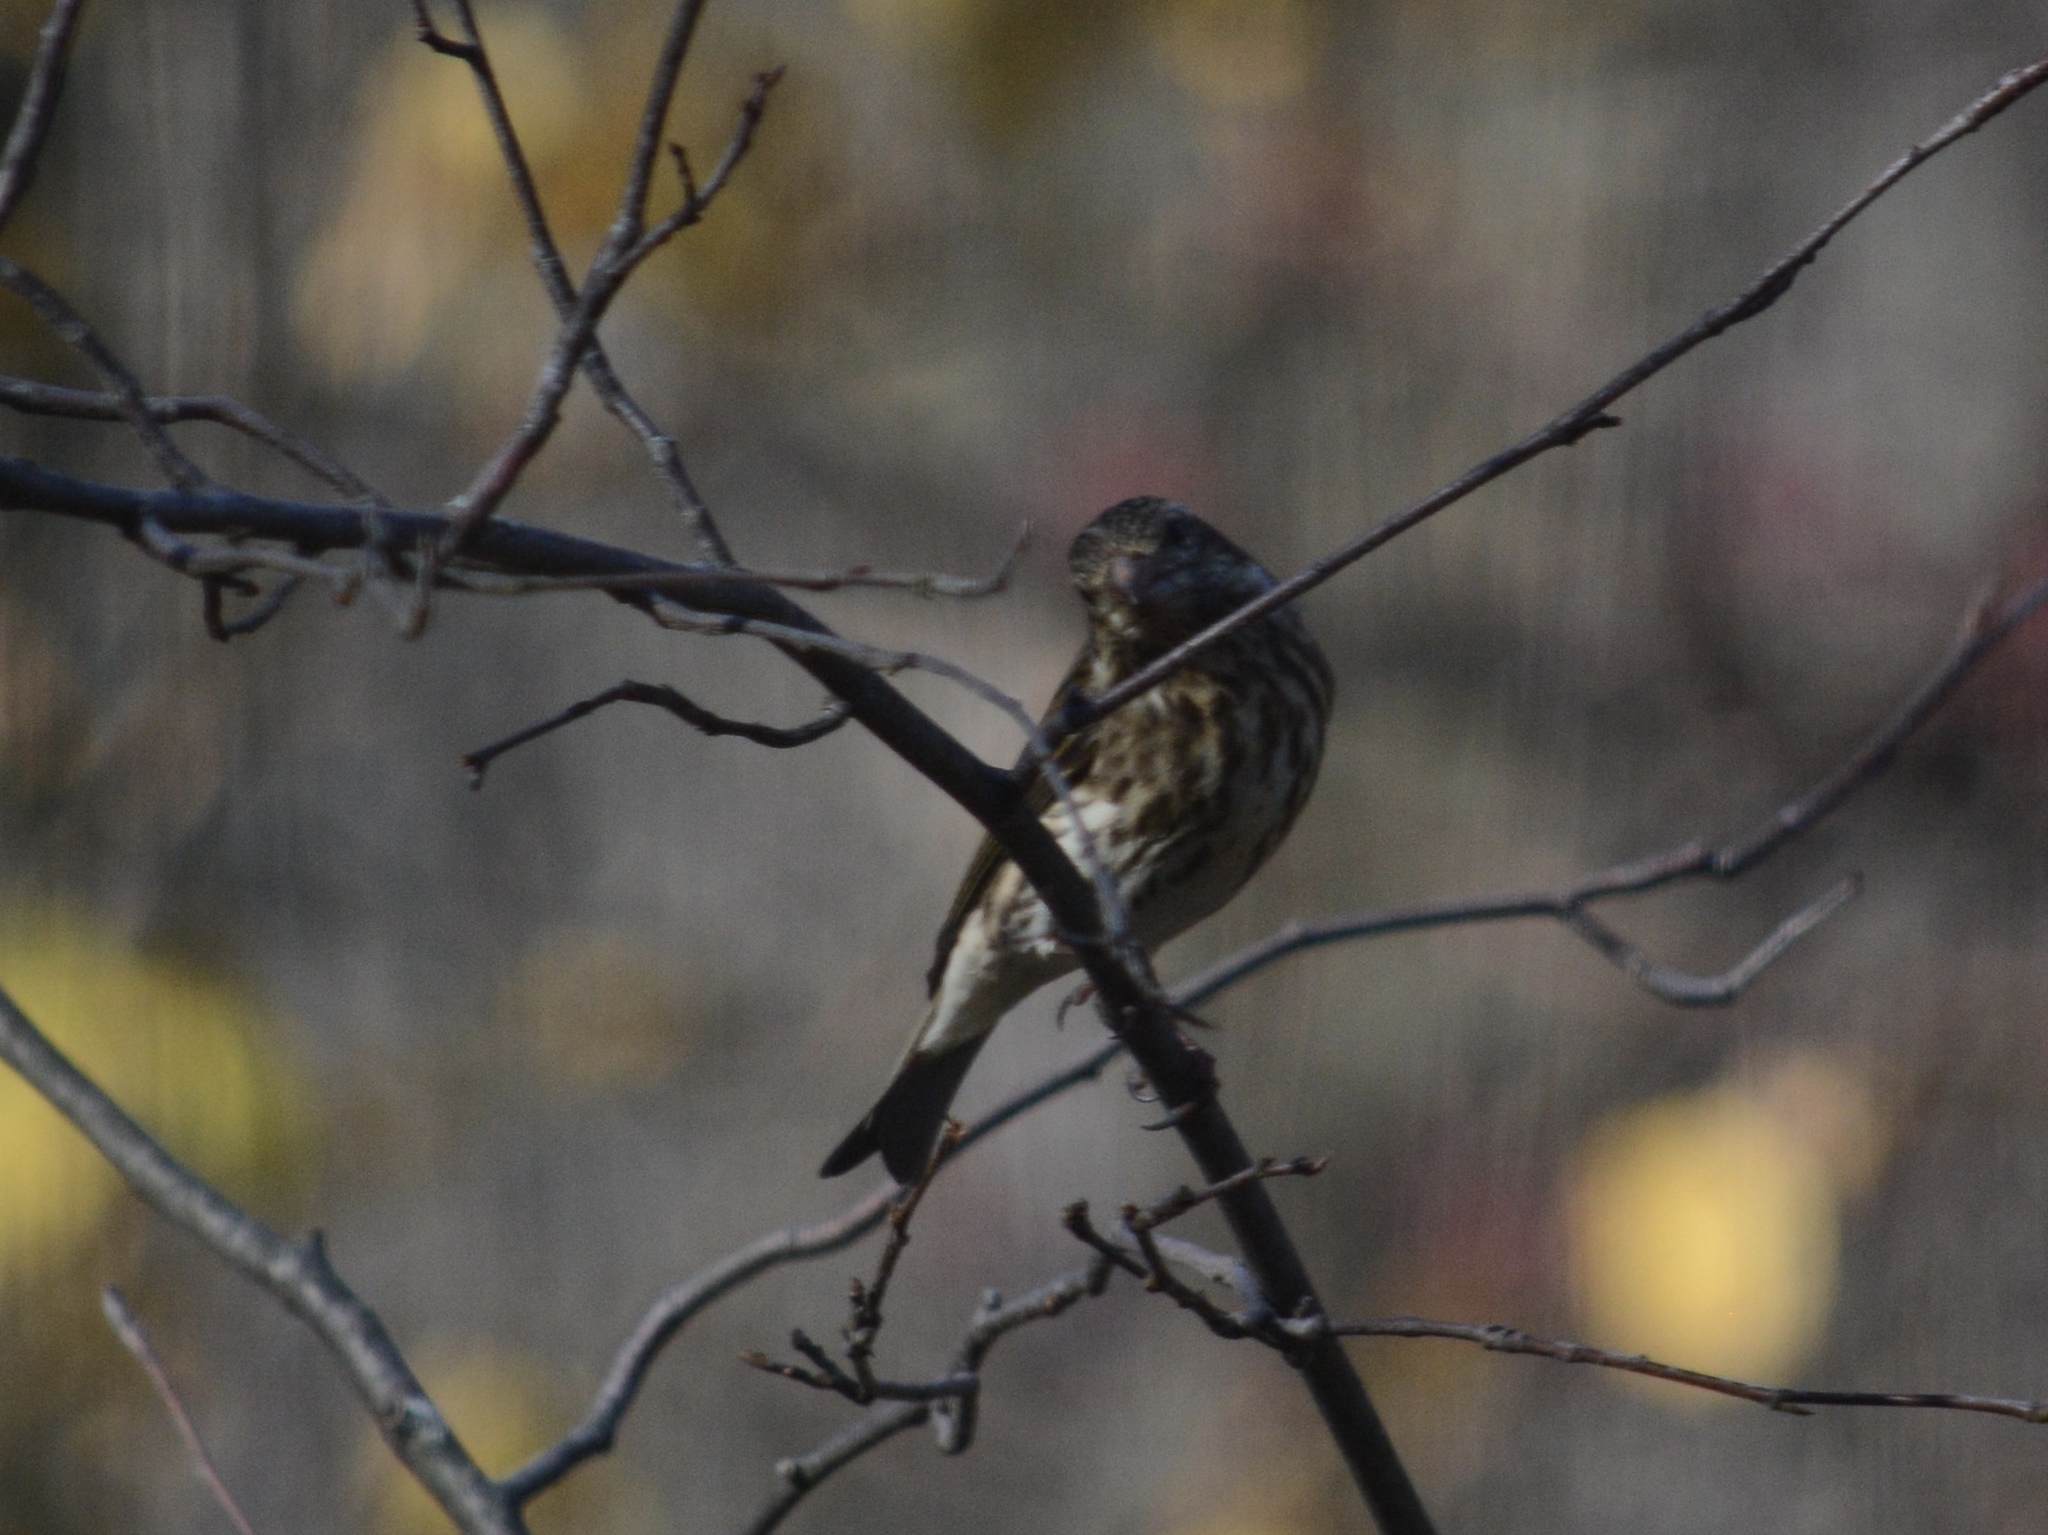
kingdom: Animalia
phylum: Chordata
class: Aves
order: Passeriformes
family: Fringillidae
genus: Haemorhous
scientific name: Haemorhous purpureus
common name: Purple finch
